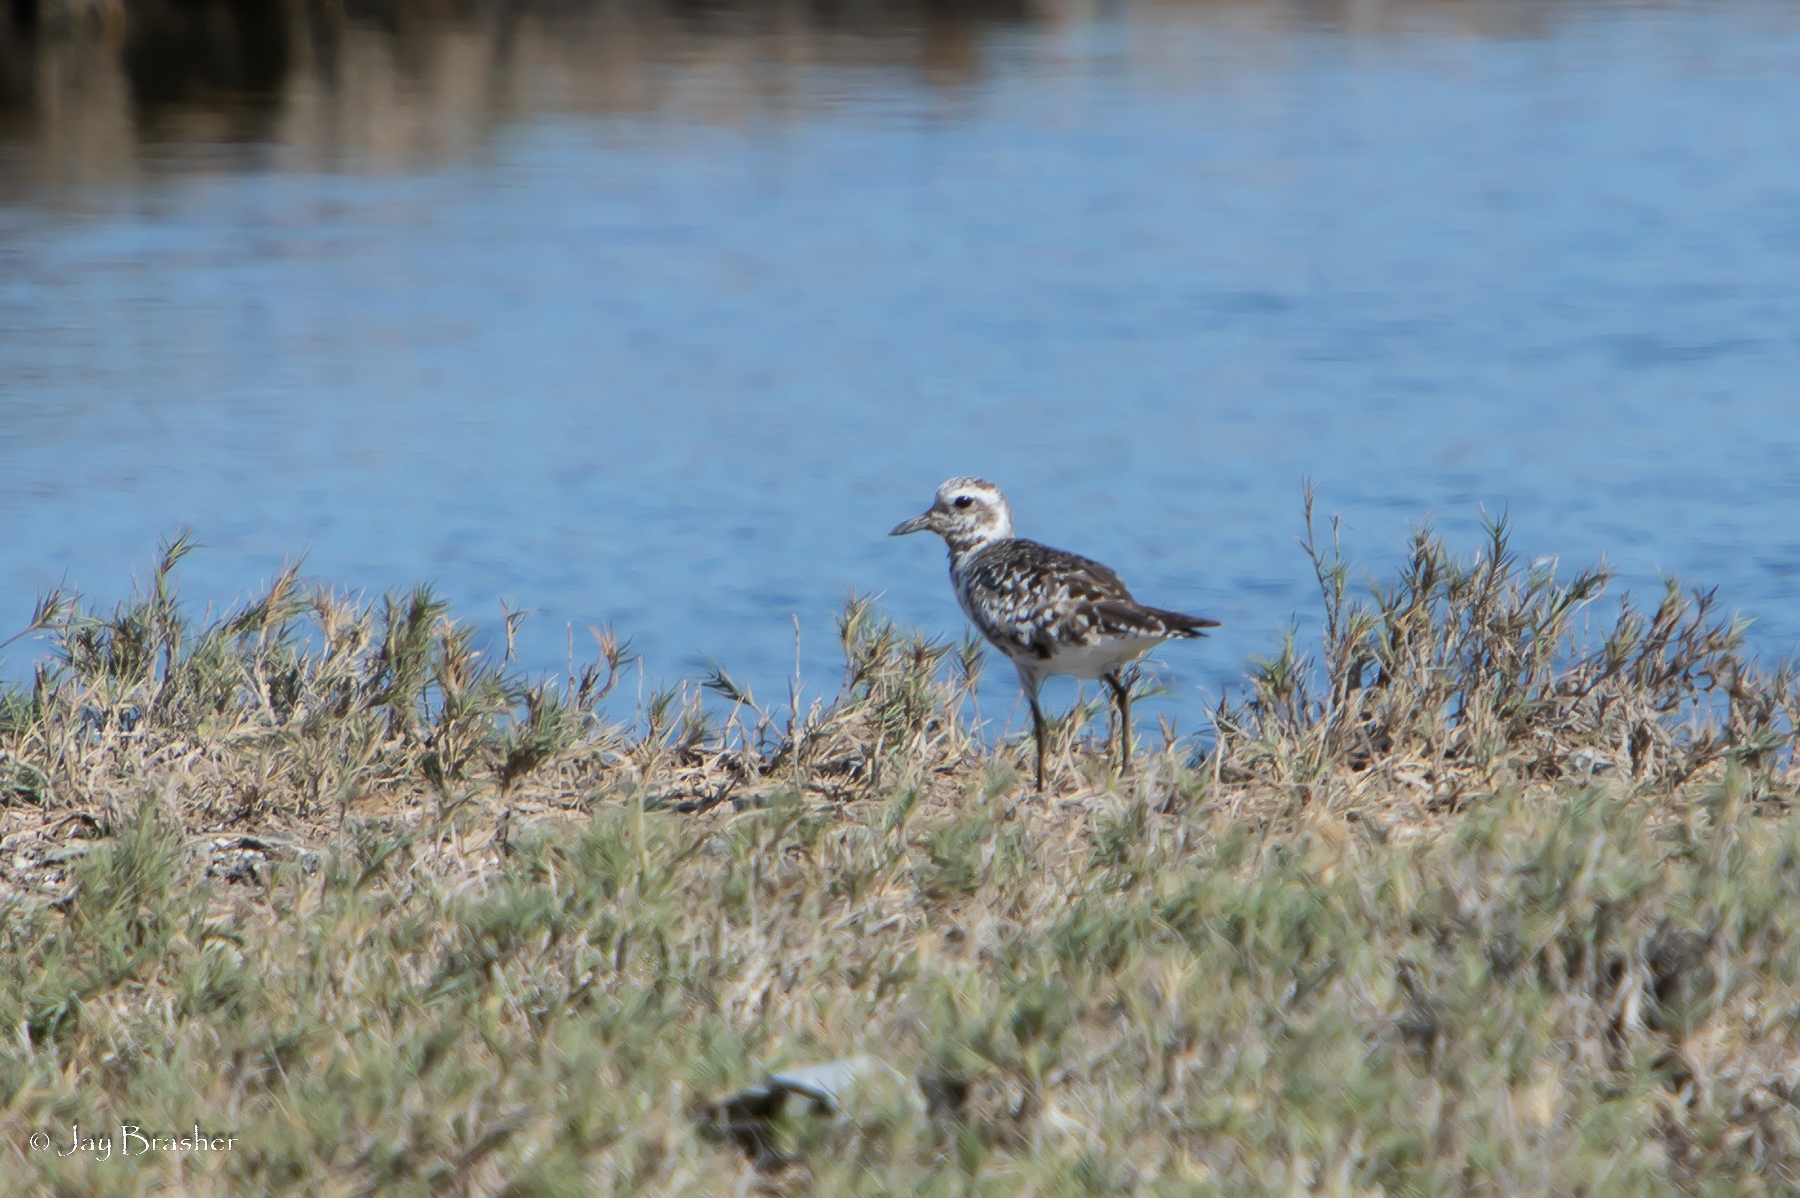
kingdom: Animalia
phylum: Chordata
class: Aves
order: Charadriiformes
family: Charadriidae
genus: Pluvialis
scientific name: Pluvialis squatarola
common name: Grey plover
